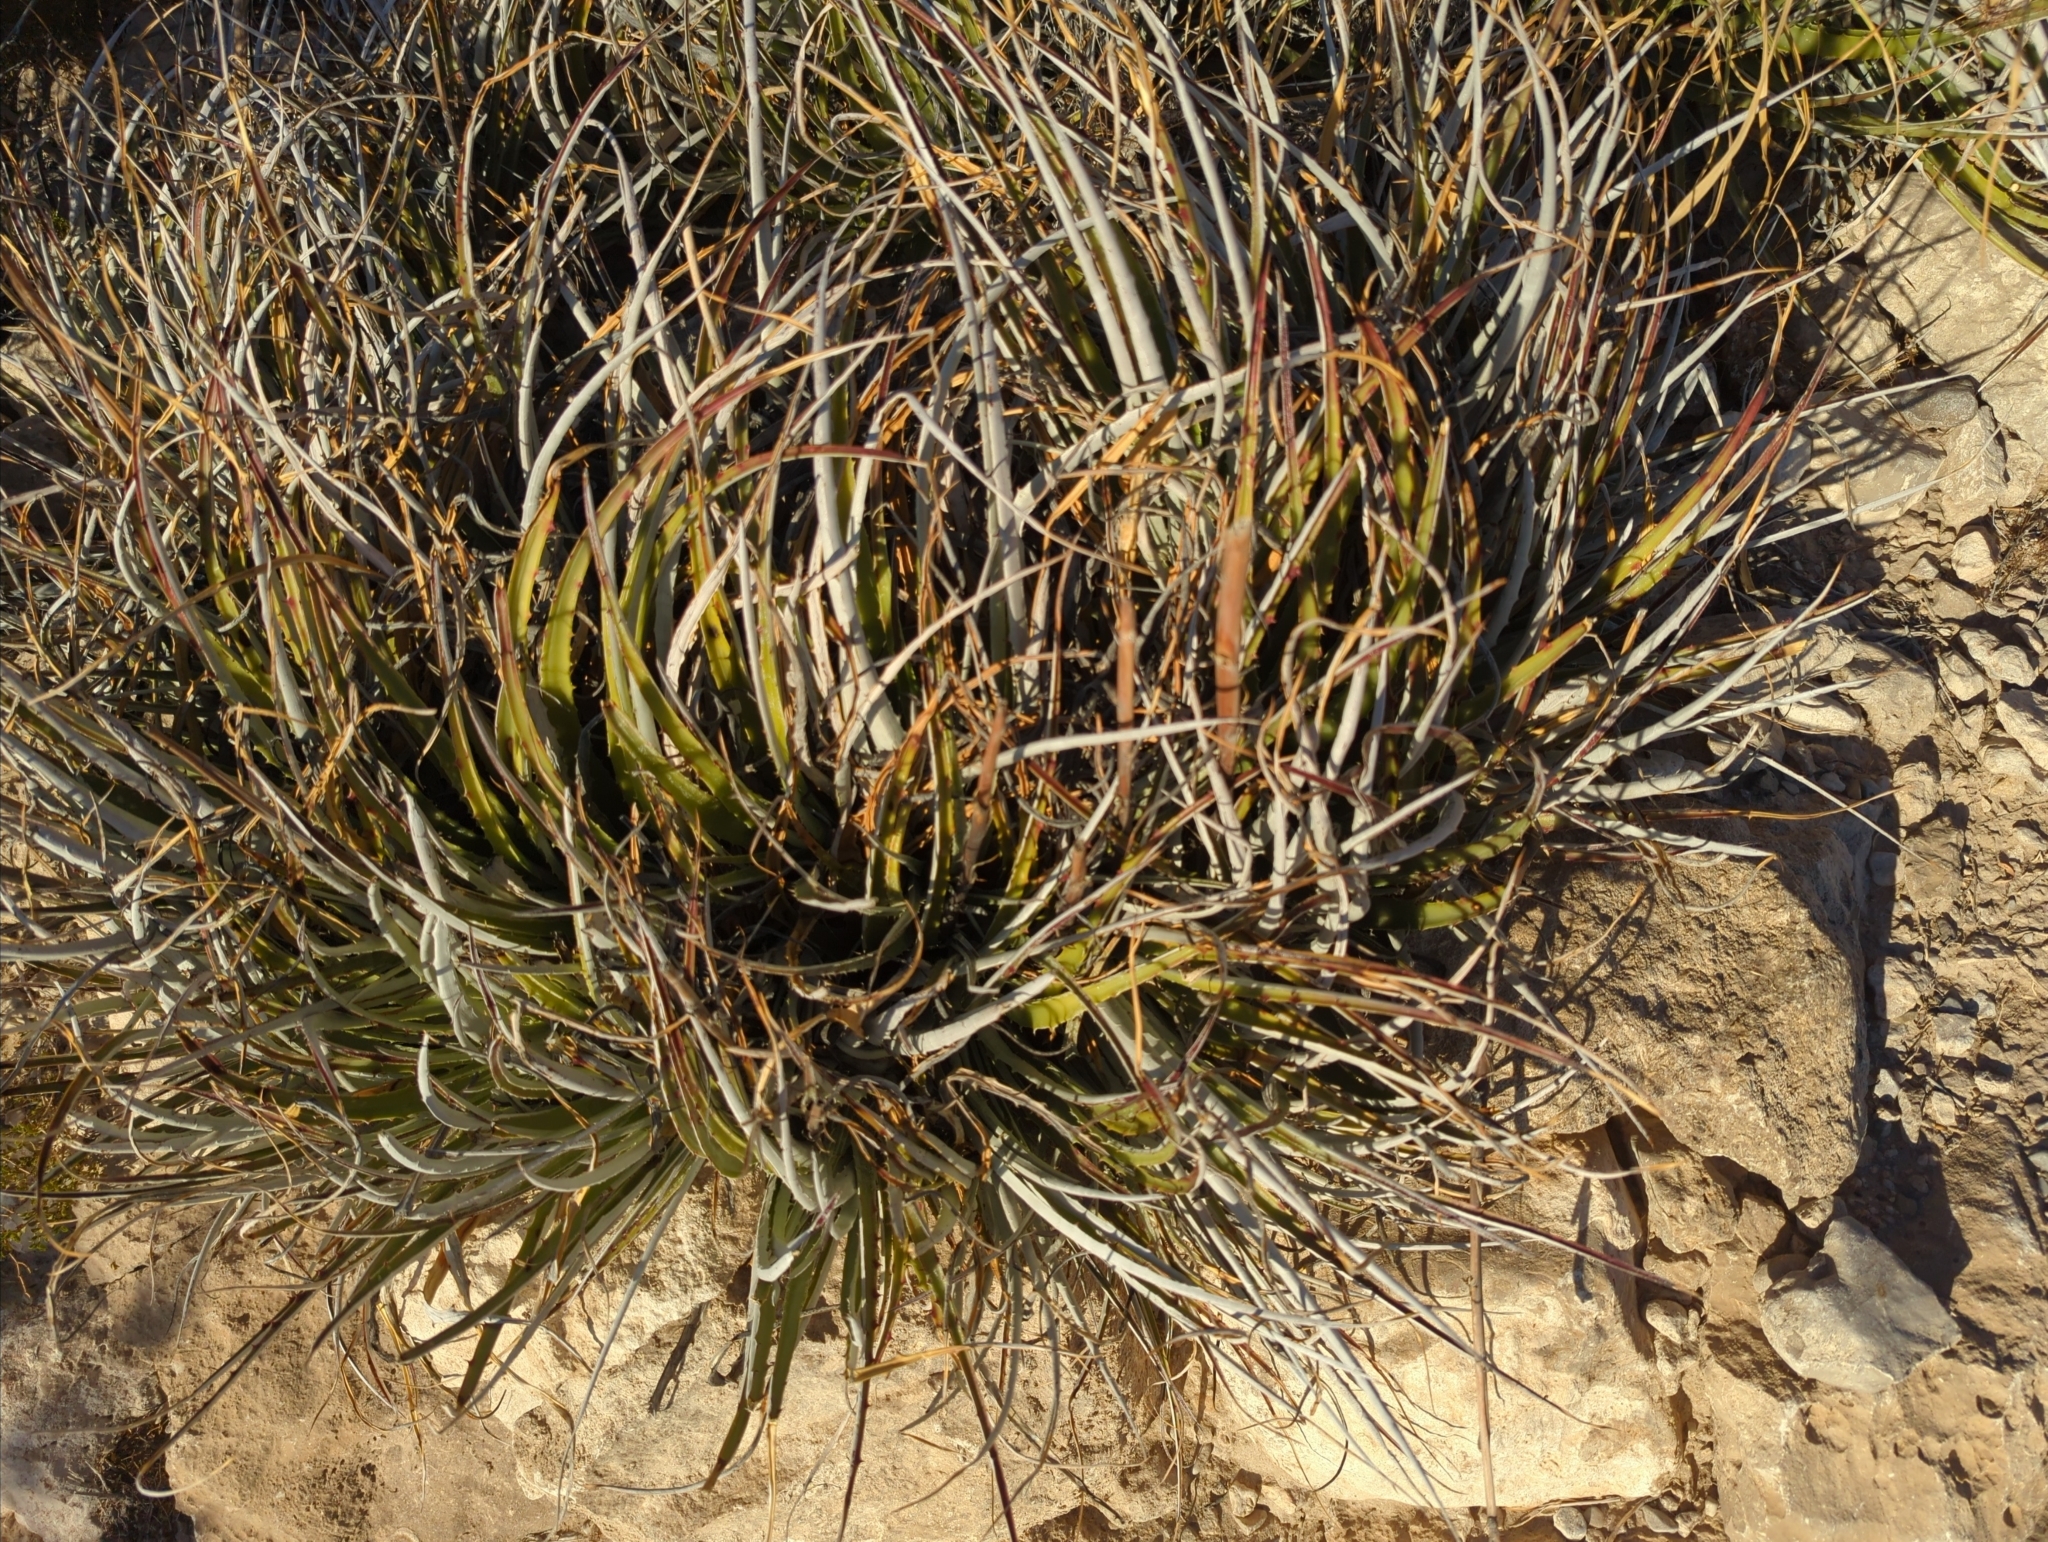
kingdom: Plantae
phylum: Tracheophyta
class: Liliopsida
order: Poales
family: Bromeliaceae
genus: Hechtia
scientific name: Hechtia texensis
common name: False agave
